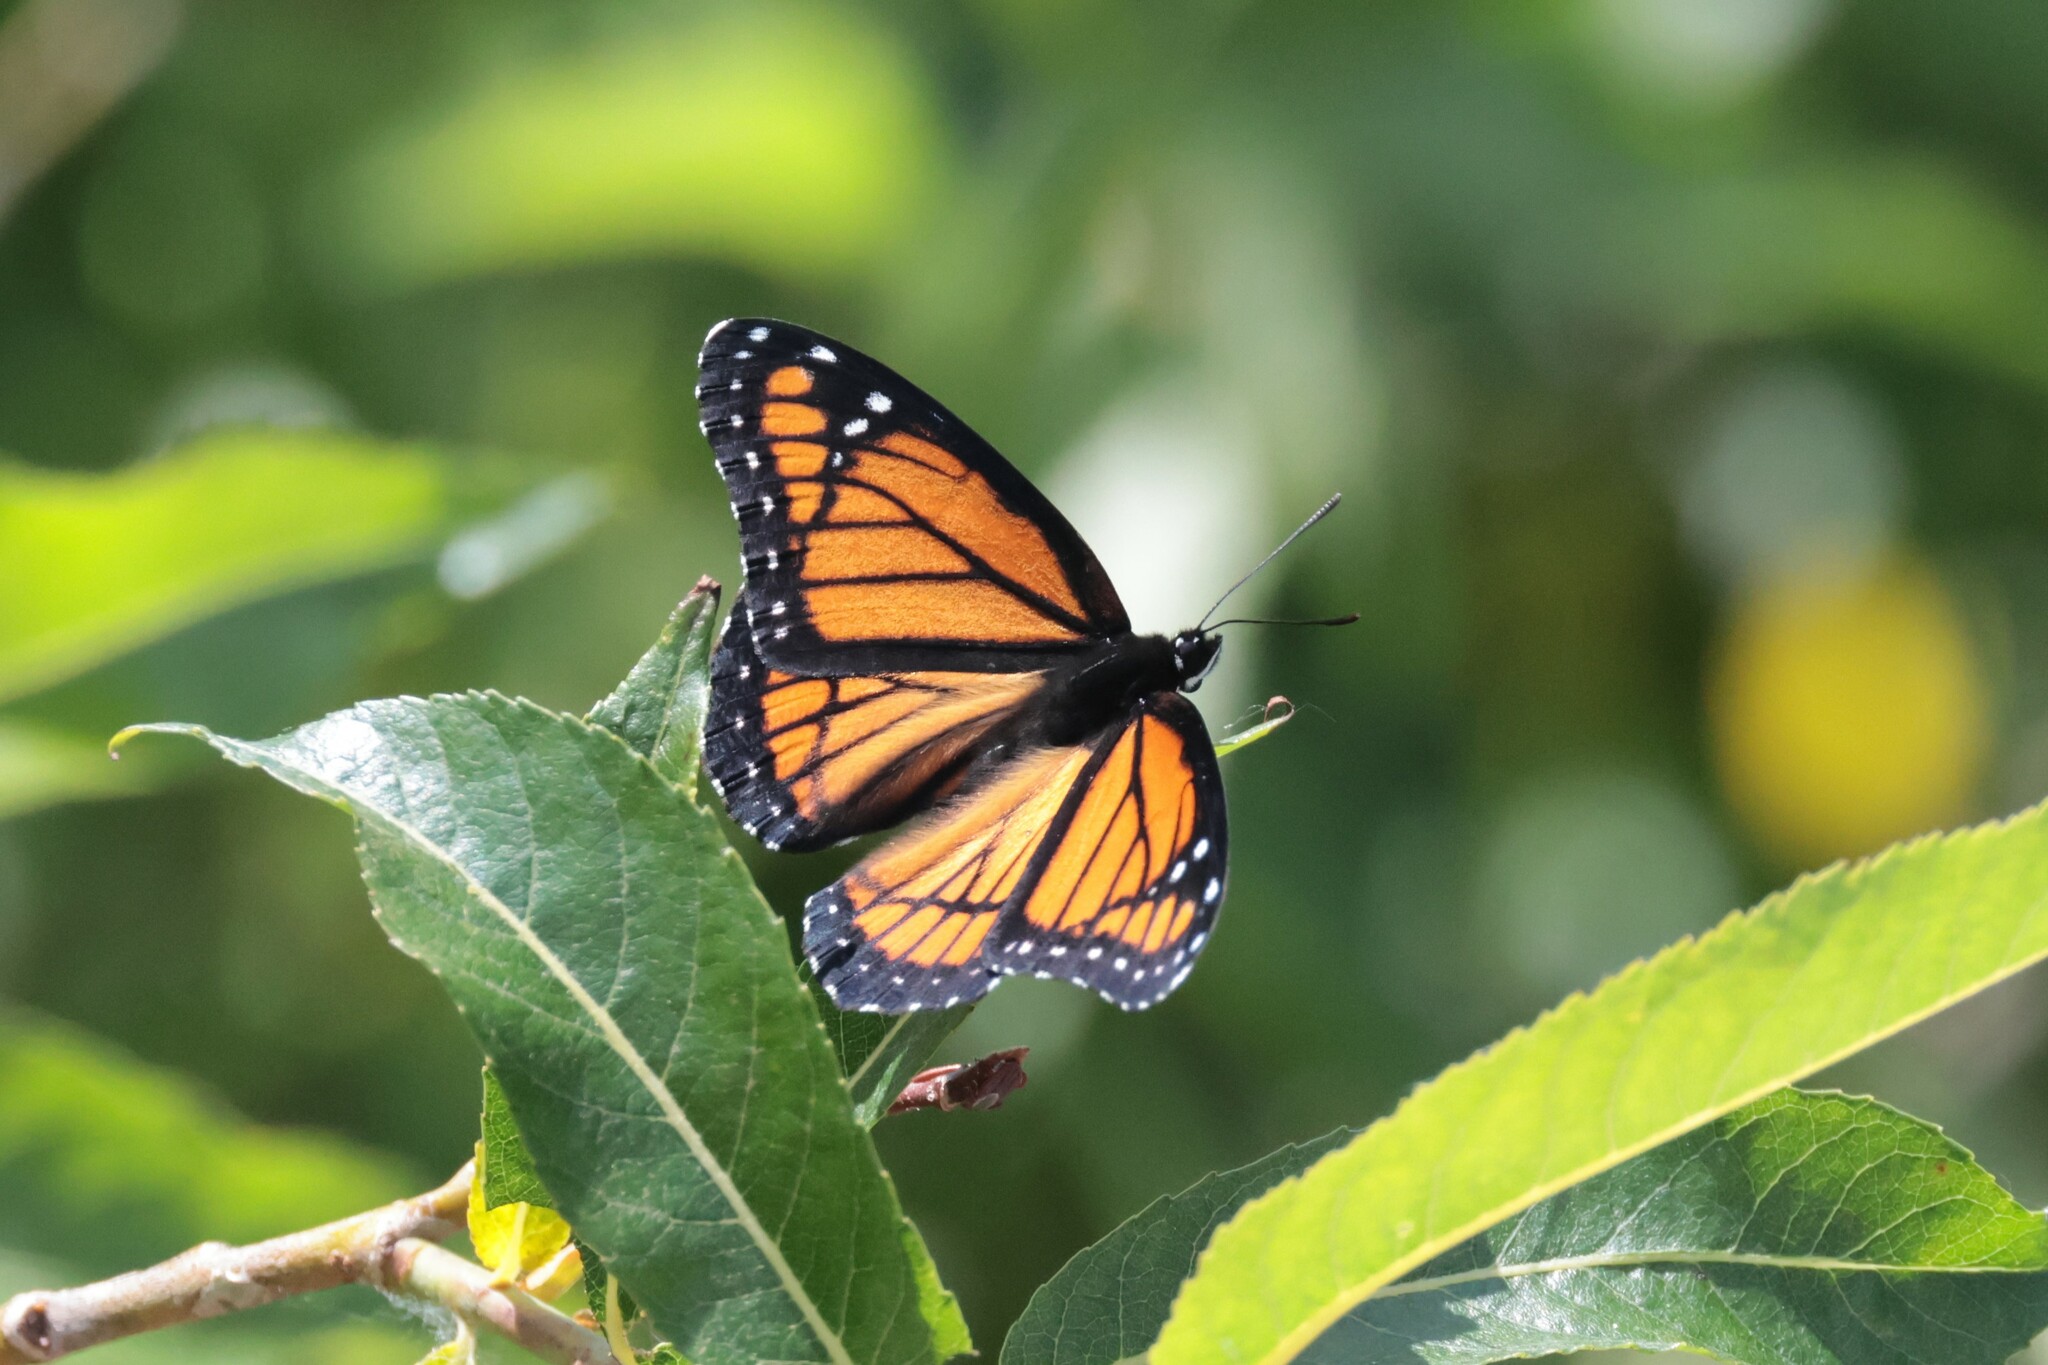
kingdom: Animalia
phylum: Arthropoda
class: Insecta
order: Lepidoptera
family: Nymphalidae
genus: Limenitis
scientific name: Limenitis archippus
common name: Viceroy
